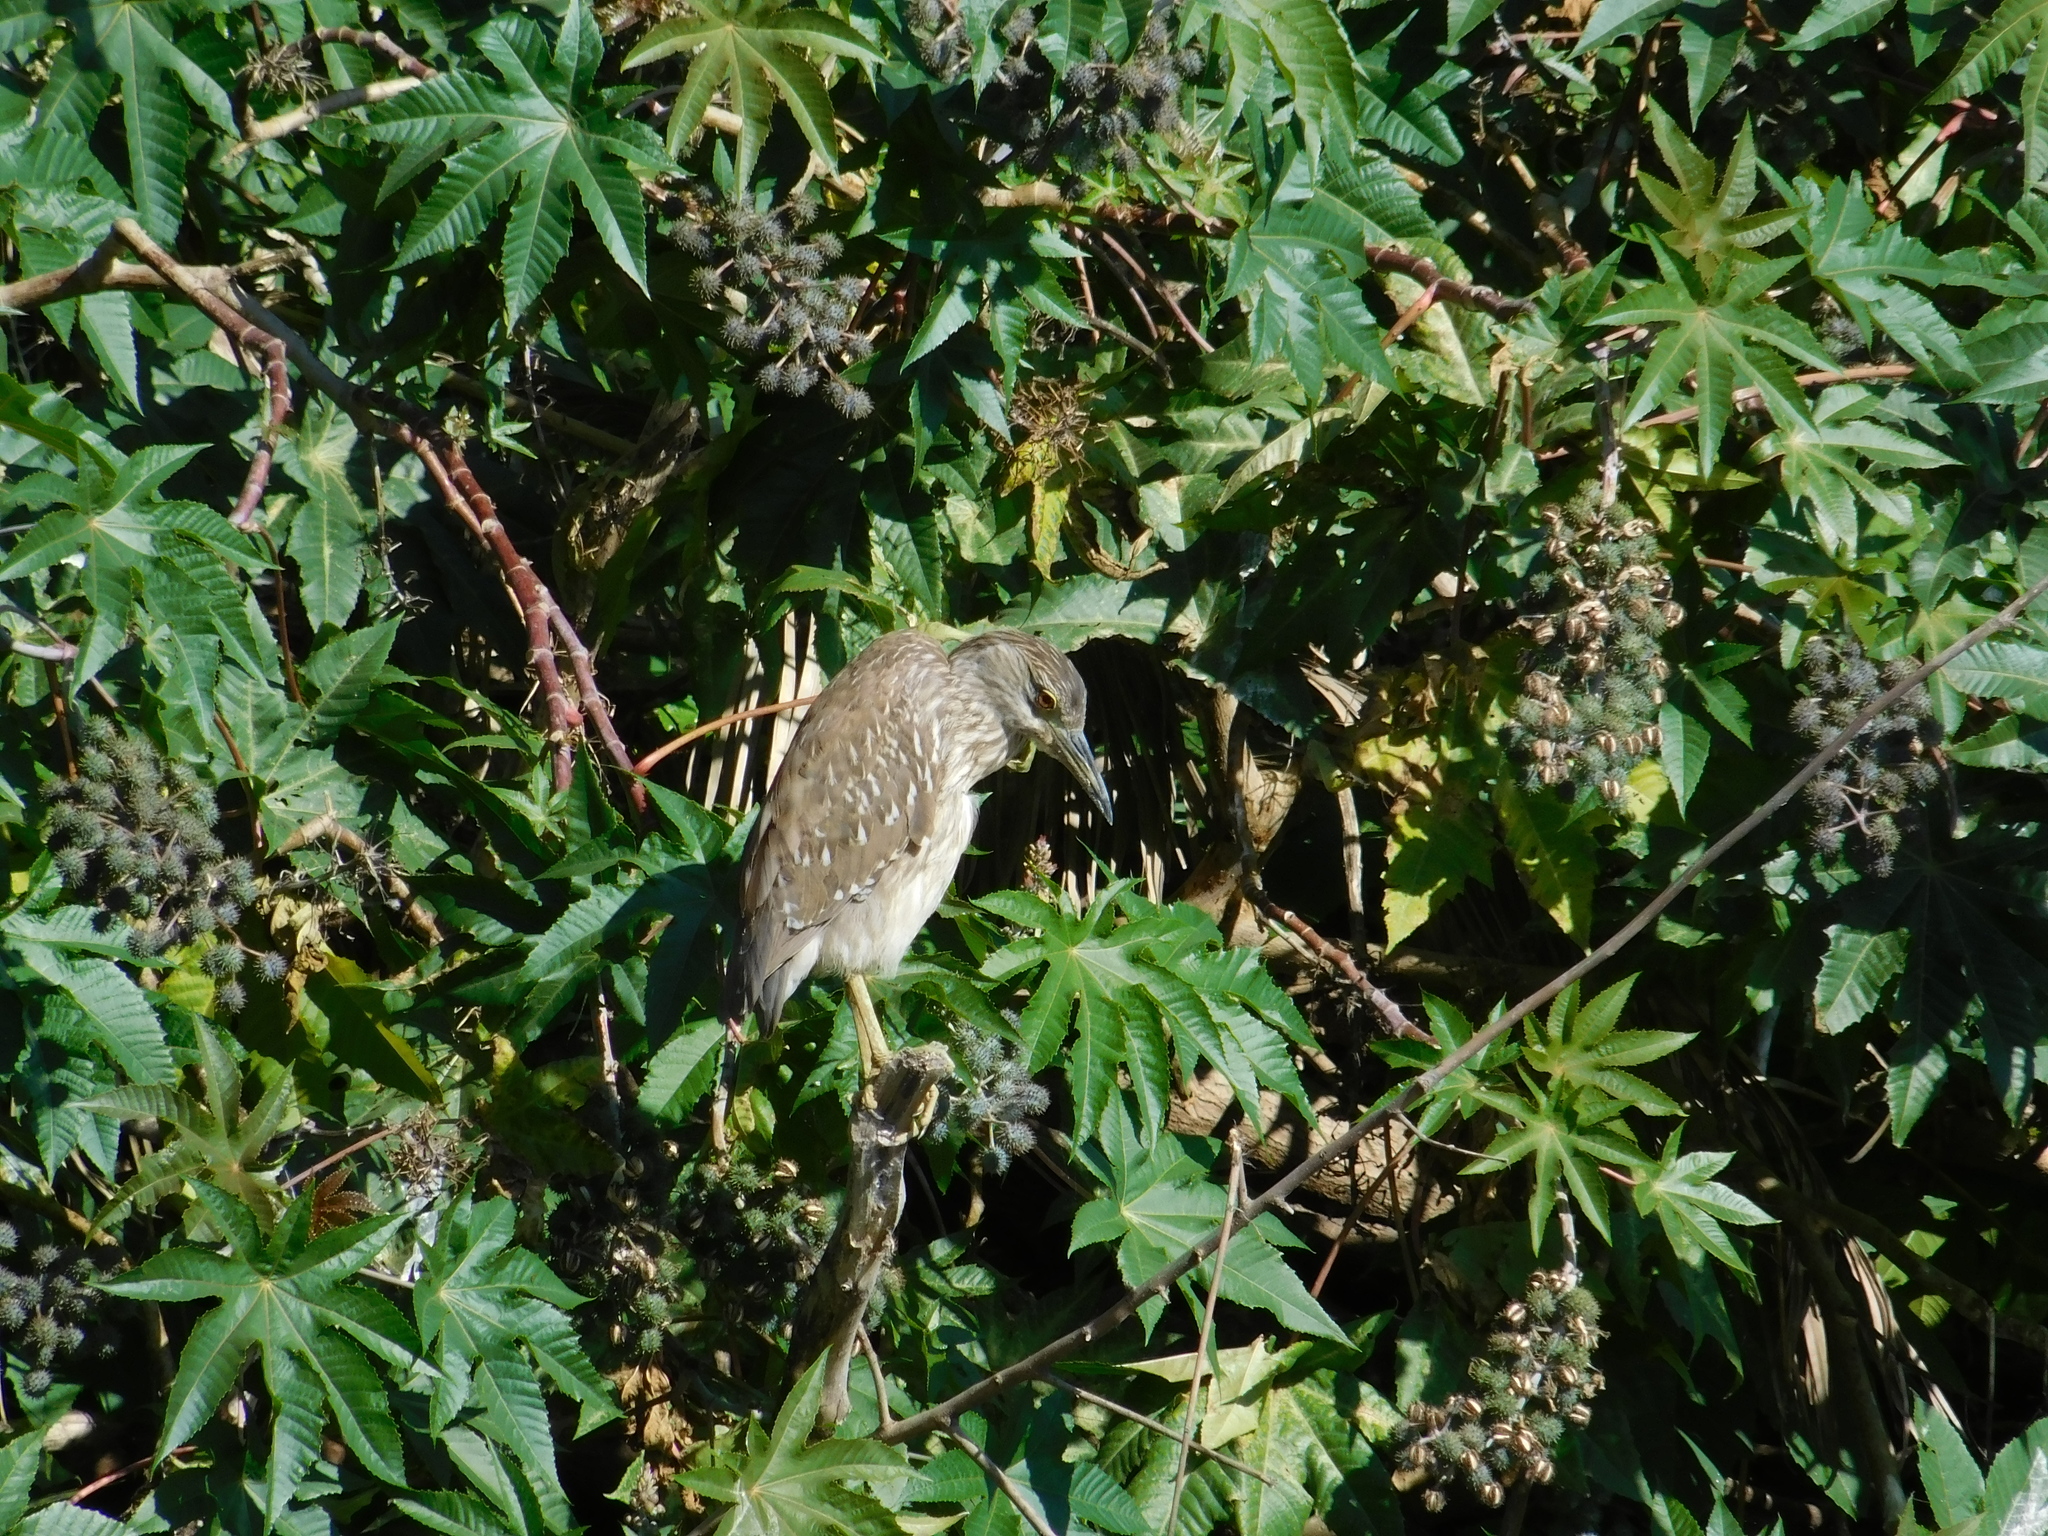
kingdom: Animalia
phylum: Chordata
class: Aves
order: Pelecaniformes
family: Ardeidae
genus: Nycticorax
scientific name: Nycticorax nycticorax
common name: Black-crowned night heron
